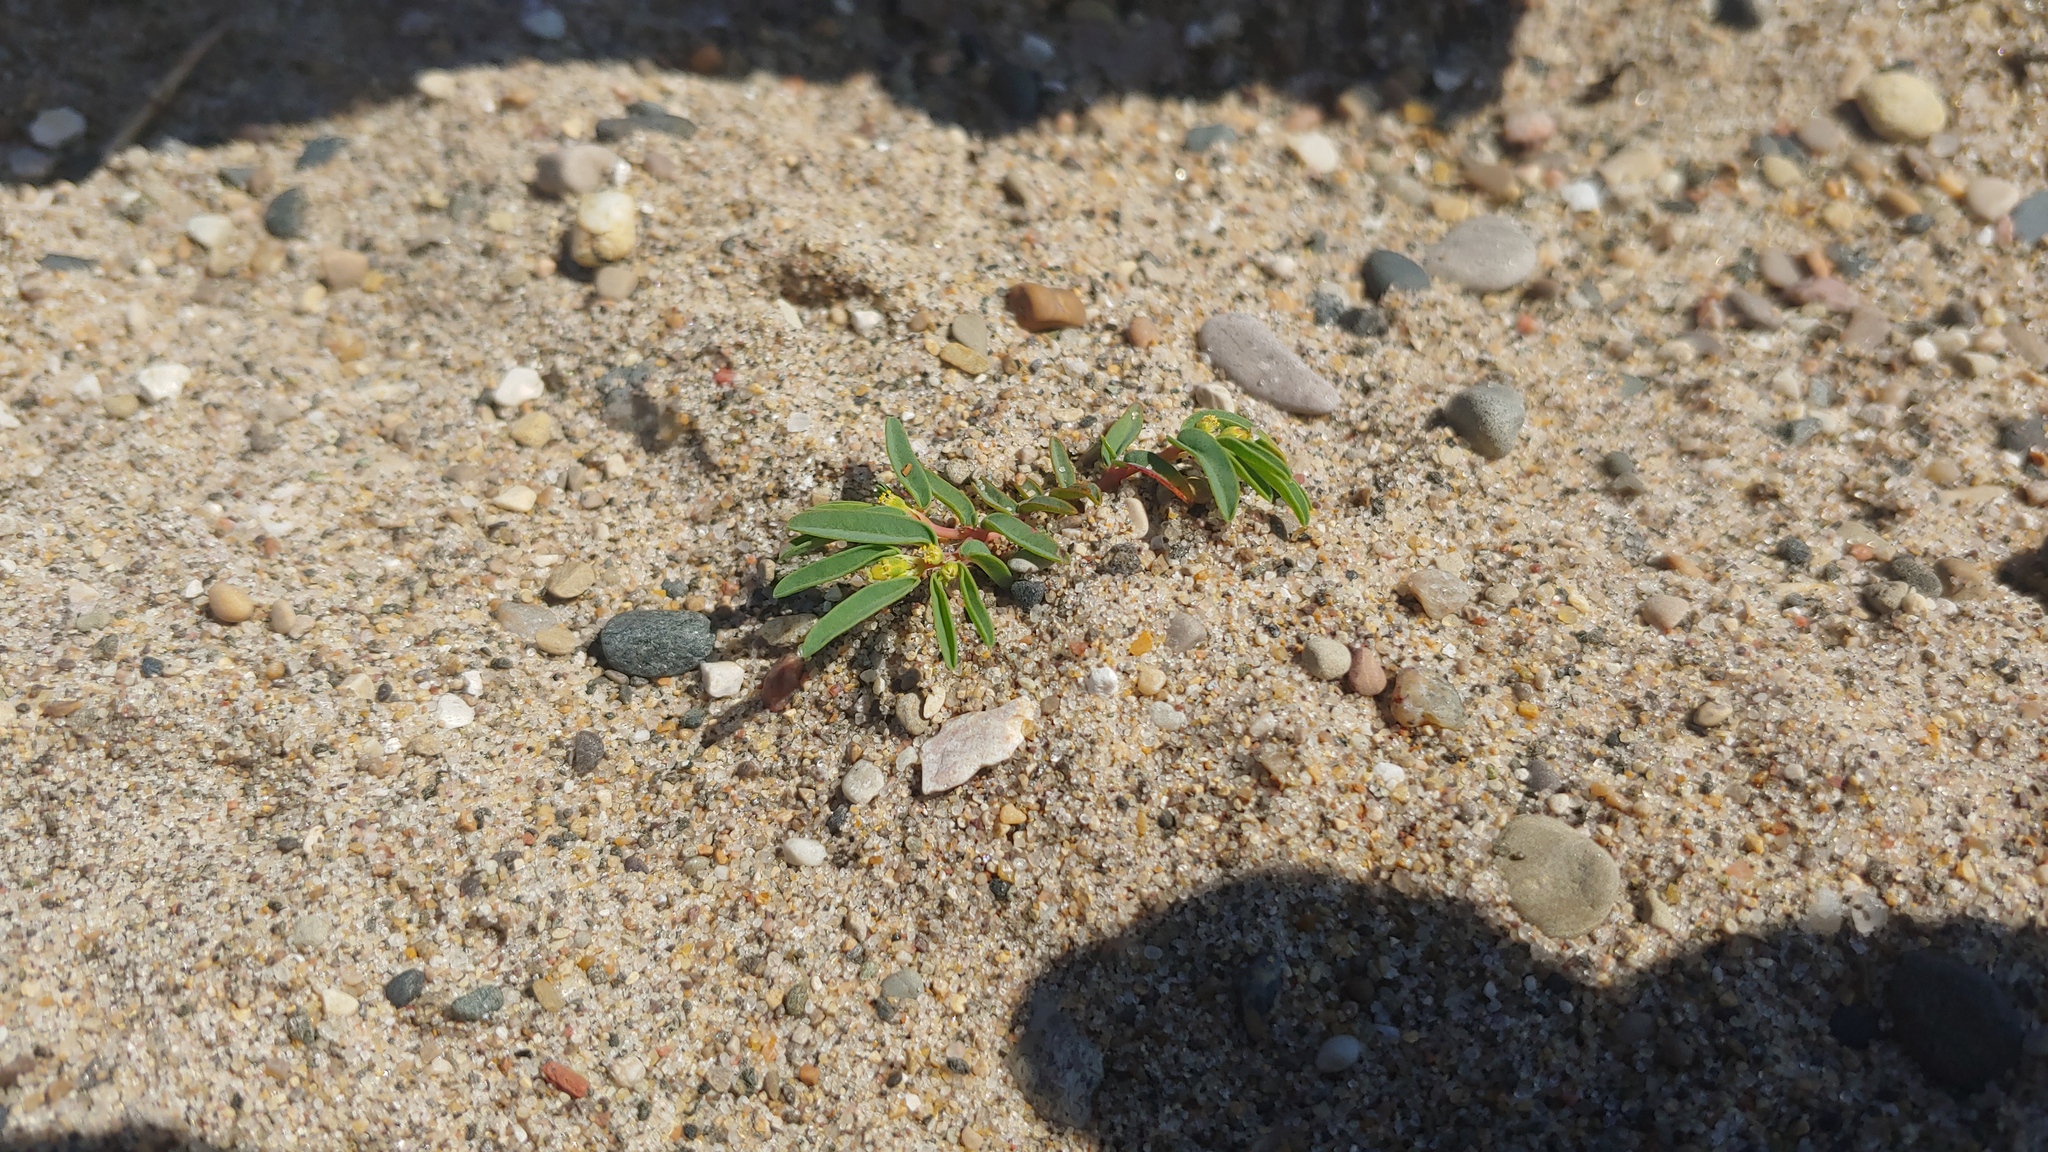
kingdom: Plantae
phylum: Tracheophyta
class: Magnoliopsida
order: Malpighiales
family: Euphorbiaceae
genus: Euphorbia
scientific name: Euphorbia polygonifolia
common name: Knotweed spurge
